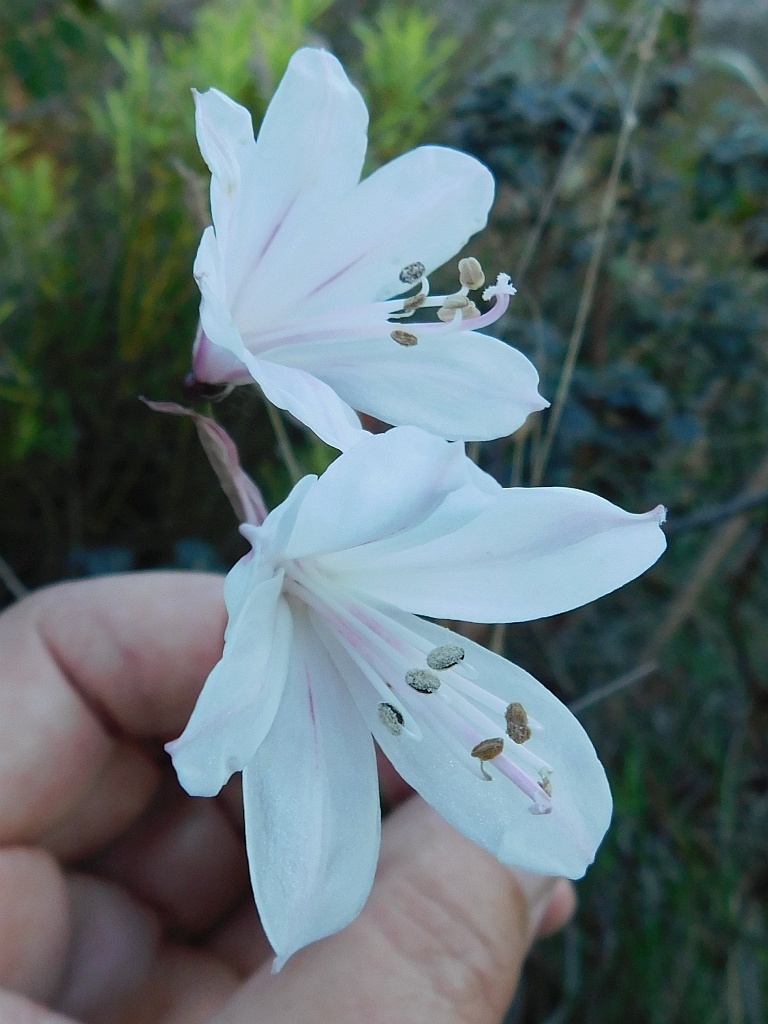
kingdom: Plantae
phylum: Tracheophyta
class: Liliopsida
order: Asparagales
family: Amaryllidaceae
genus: Nerine
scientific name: Nerine pudica
